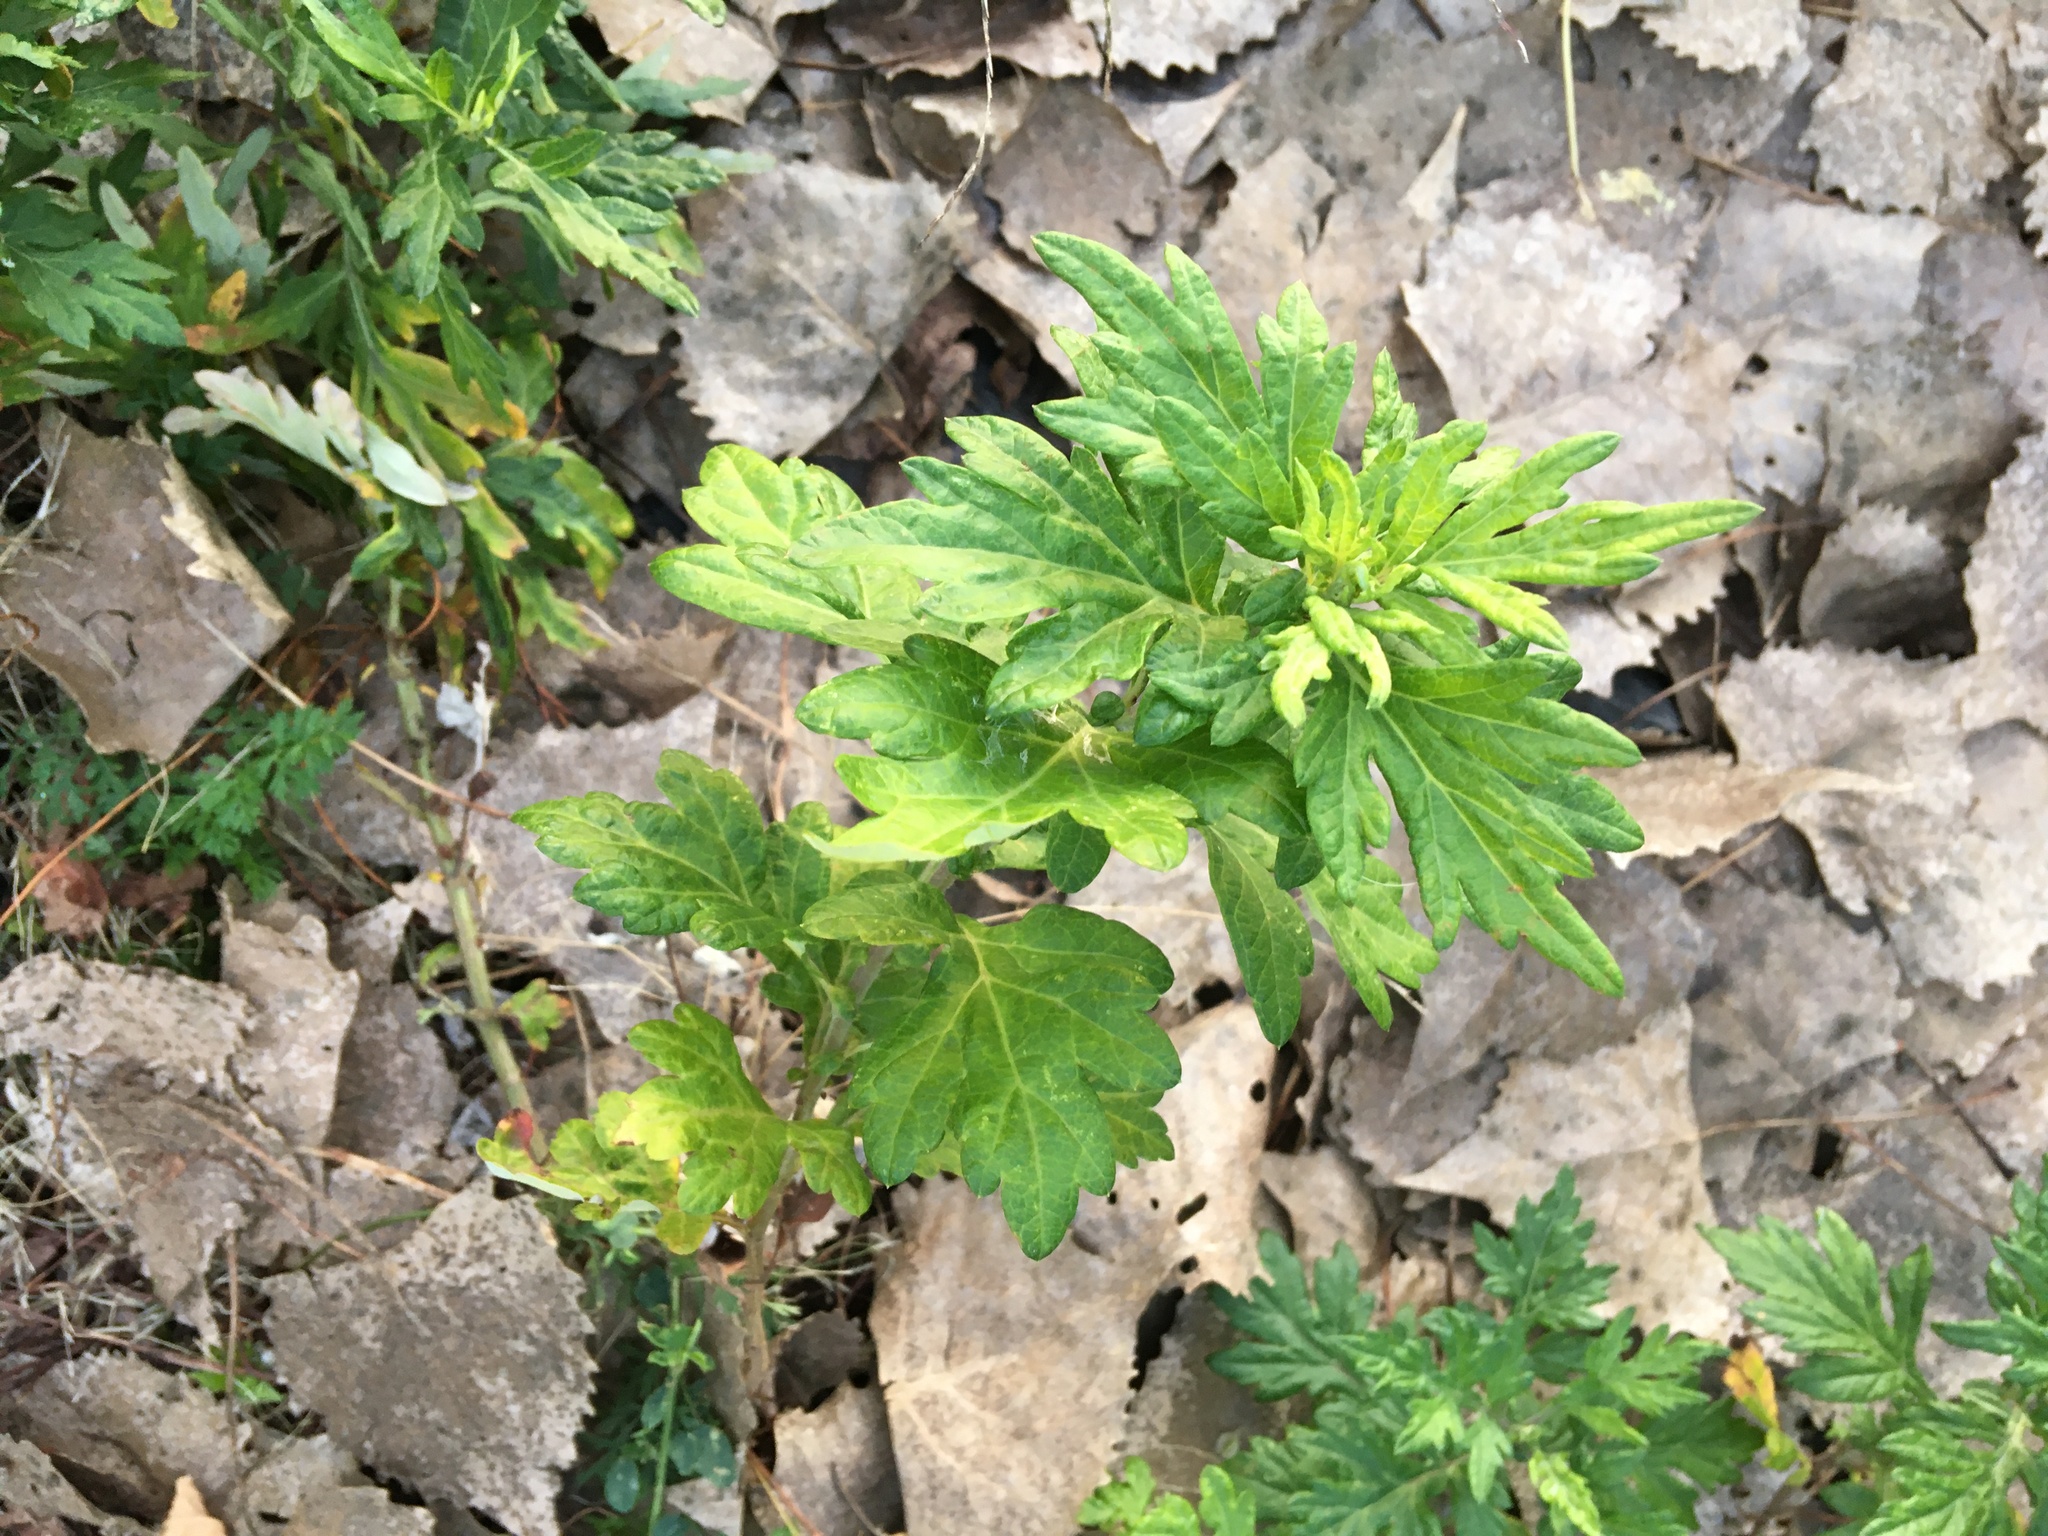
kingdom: Plantae
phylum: Tracheophyta
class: Magnoliopsida
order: Asterales
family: Asteraceae
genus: Artemisia
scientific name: Artemisia vulgaris
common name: Mugwort
